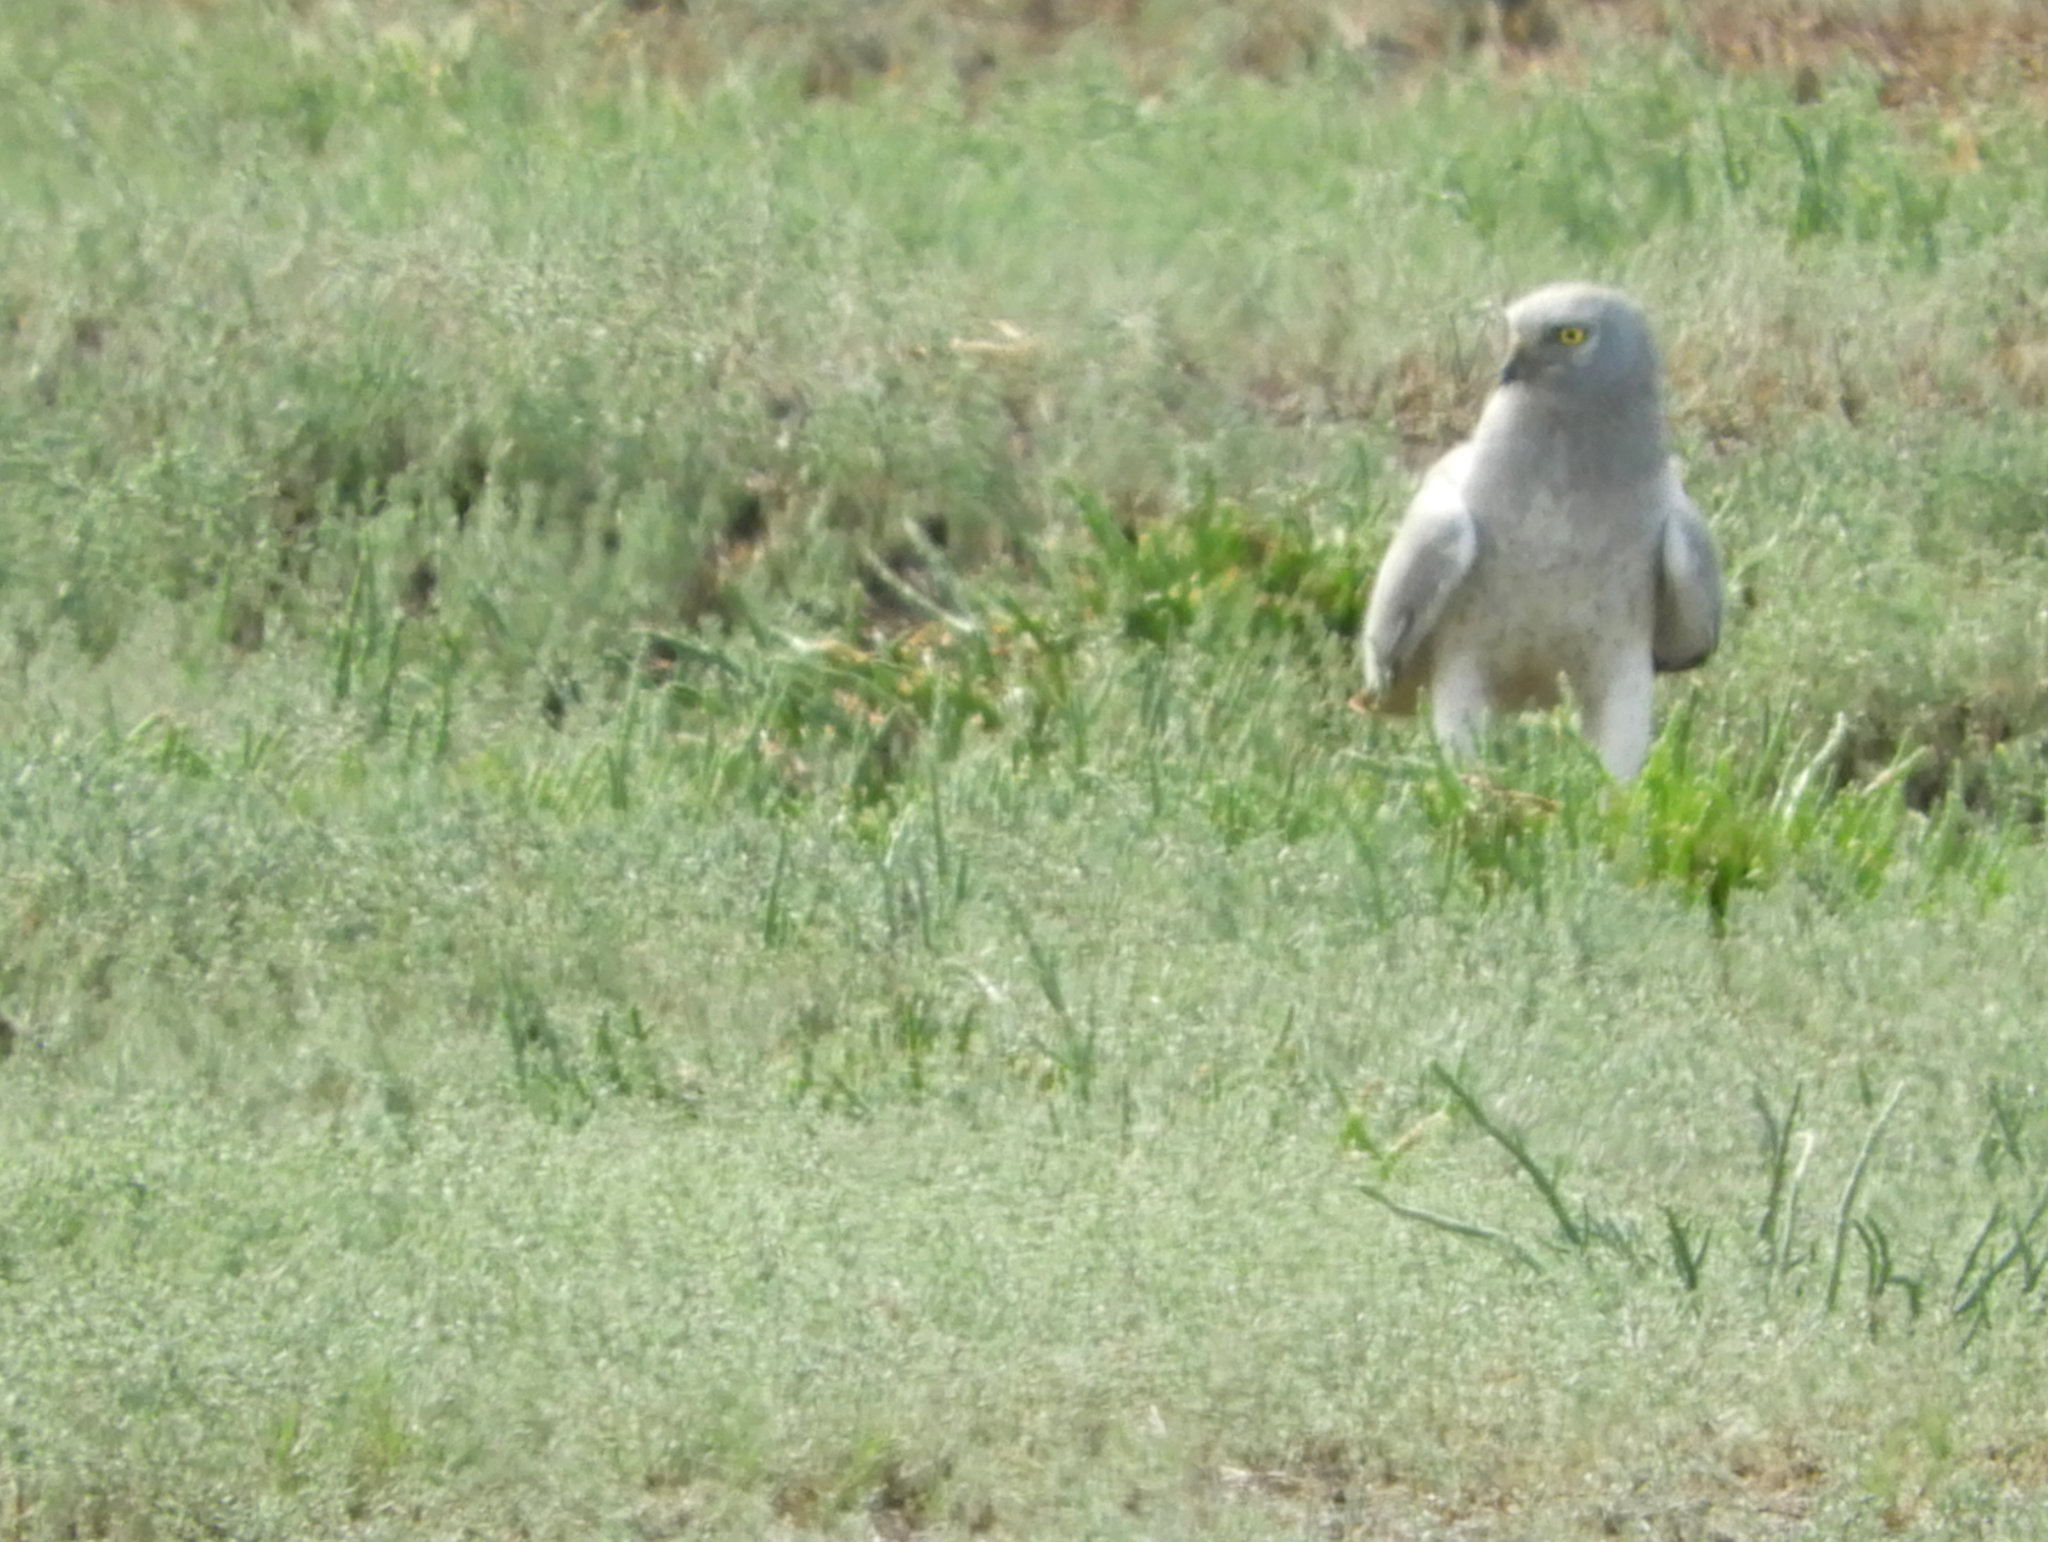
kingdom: Animalia
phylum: Chordata
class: Aves
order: Accipitriformes
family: Accipitridae
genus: Circus
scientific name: Circus cyaneus
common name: Hen harrier
